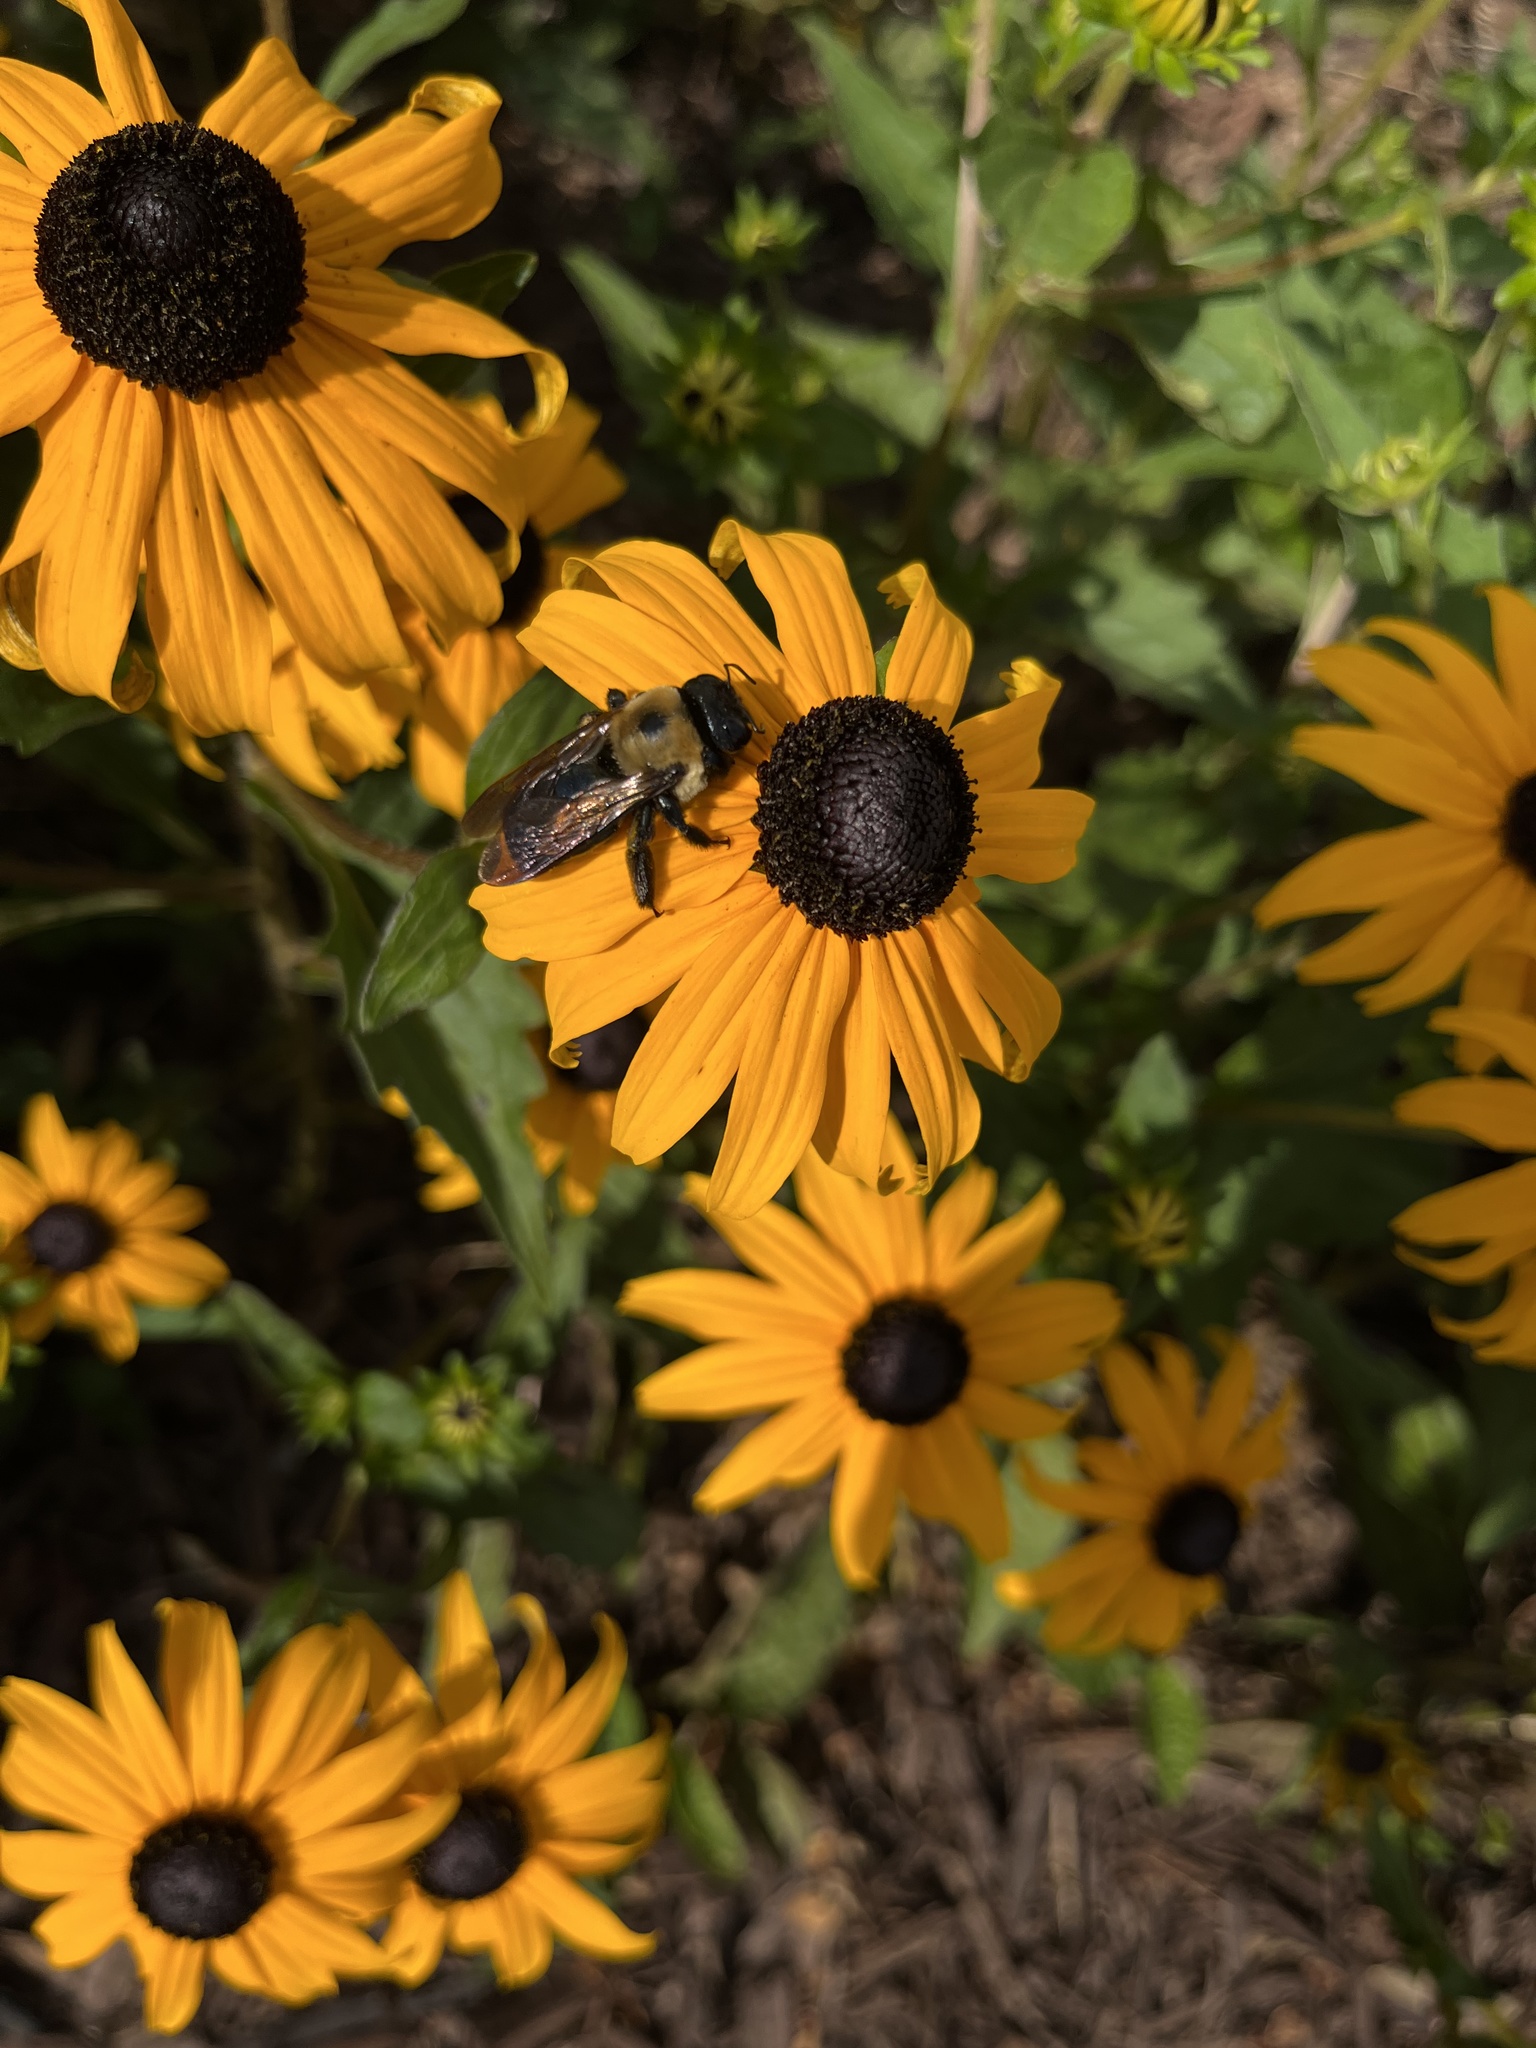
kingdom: Animalia
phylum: Arthropoda
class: Insecta
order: Hymenoptera
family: Apidae
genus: Xylocopa
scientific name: Xylocopa virginica
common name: Carpenter bee
